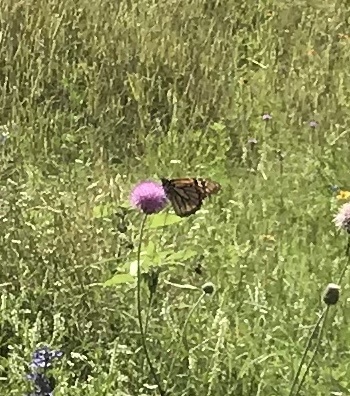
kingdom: Animalia
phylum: Arthropoda
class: Insecta
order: Lepidoptera
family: Nymphalidae
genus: Danaus
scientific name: Danaus plexippus
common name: Monarch
